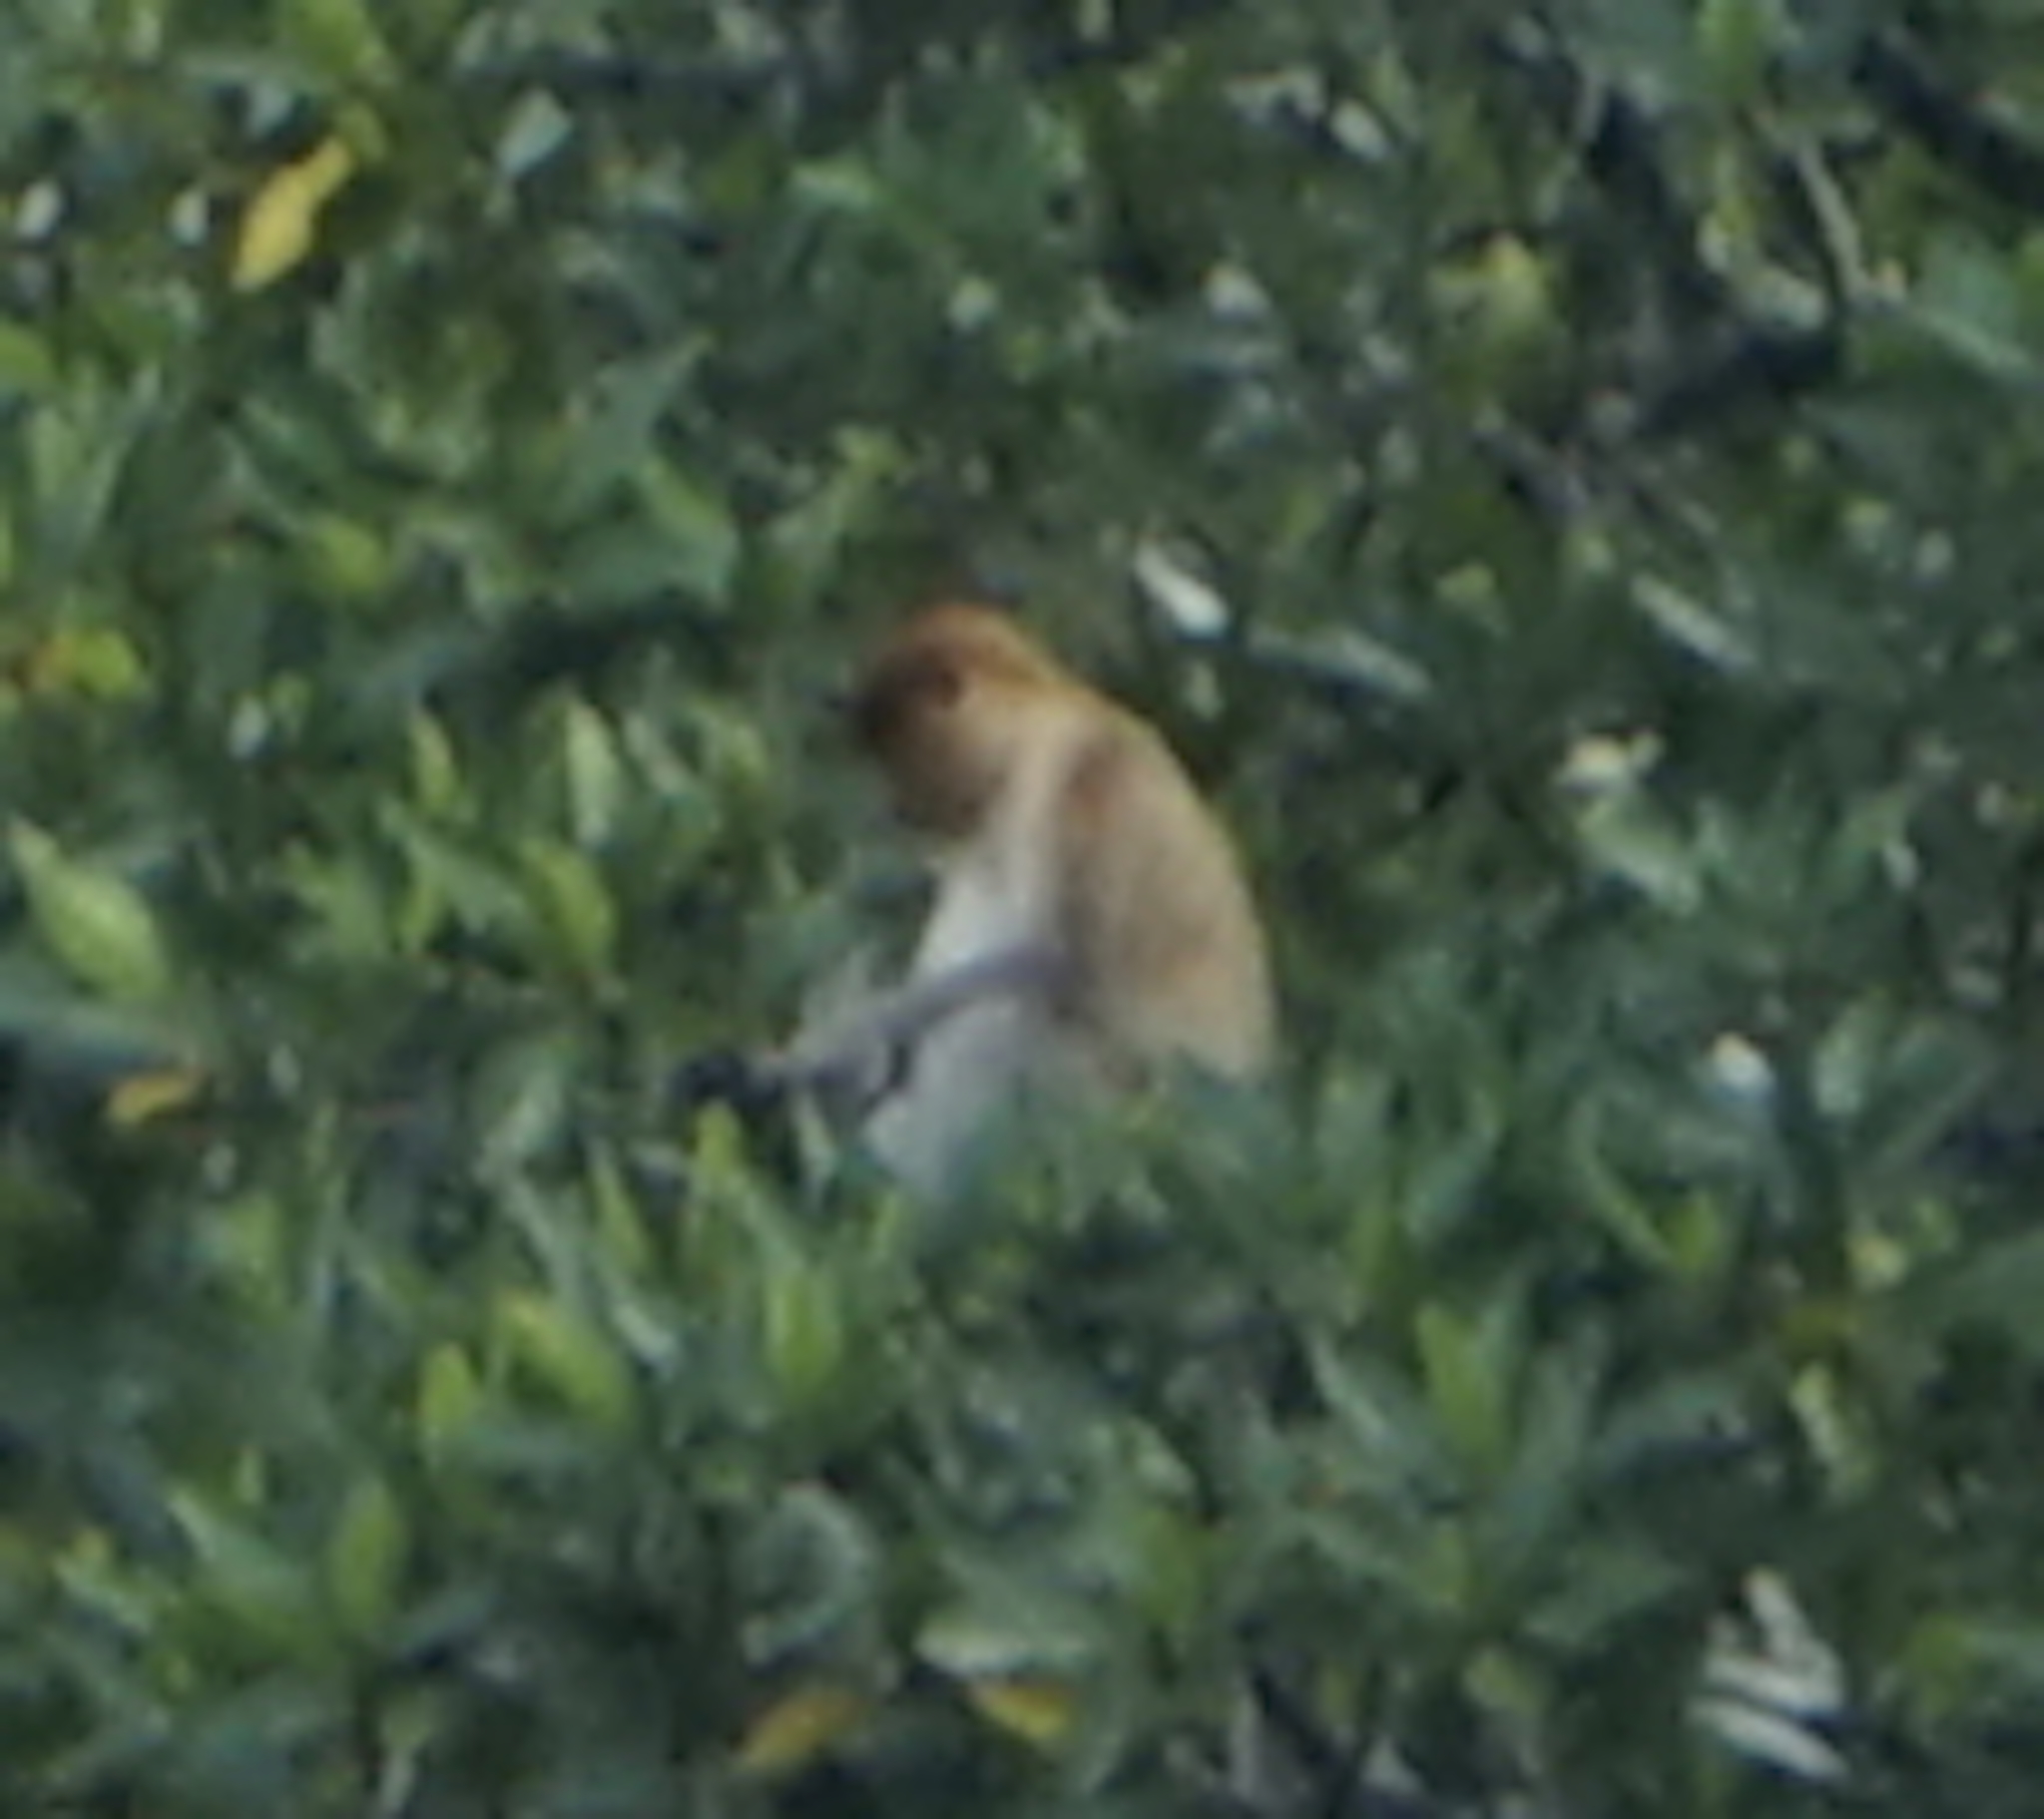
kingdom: Animalia
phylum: Chordata
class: Mammalia
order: Primates
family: Cercopithecidae
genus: Nasalis
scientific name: Nasalis larvatus
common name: Proboscis monkey
